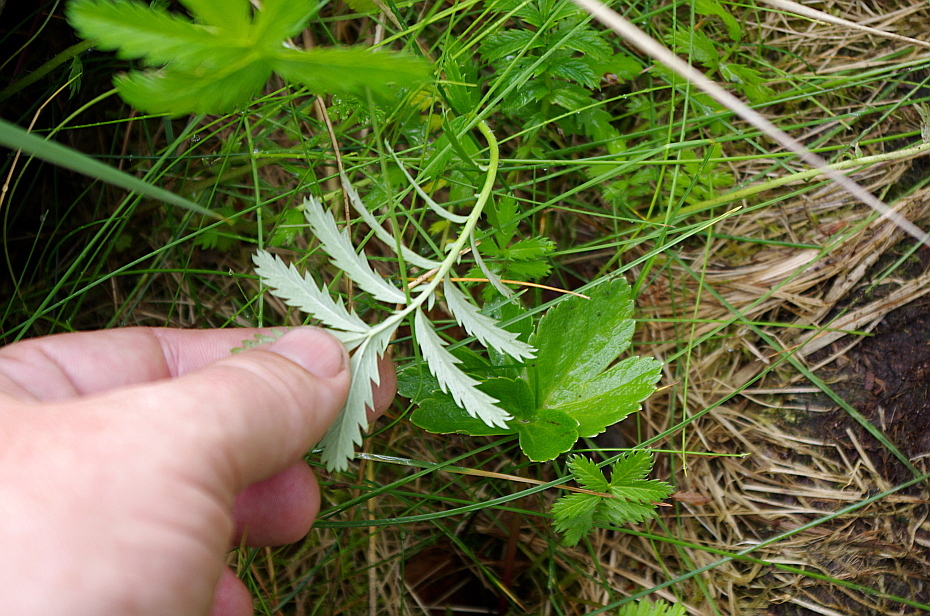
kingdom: Plantae
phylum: Tracheophyta
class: Magnoliopsida
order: Rosales
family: Rosaceae
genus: Argentina
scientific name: Argentina anserina
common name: Common silverweed
